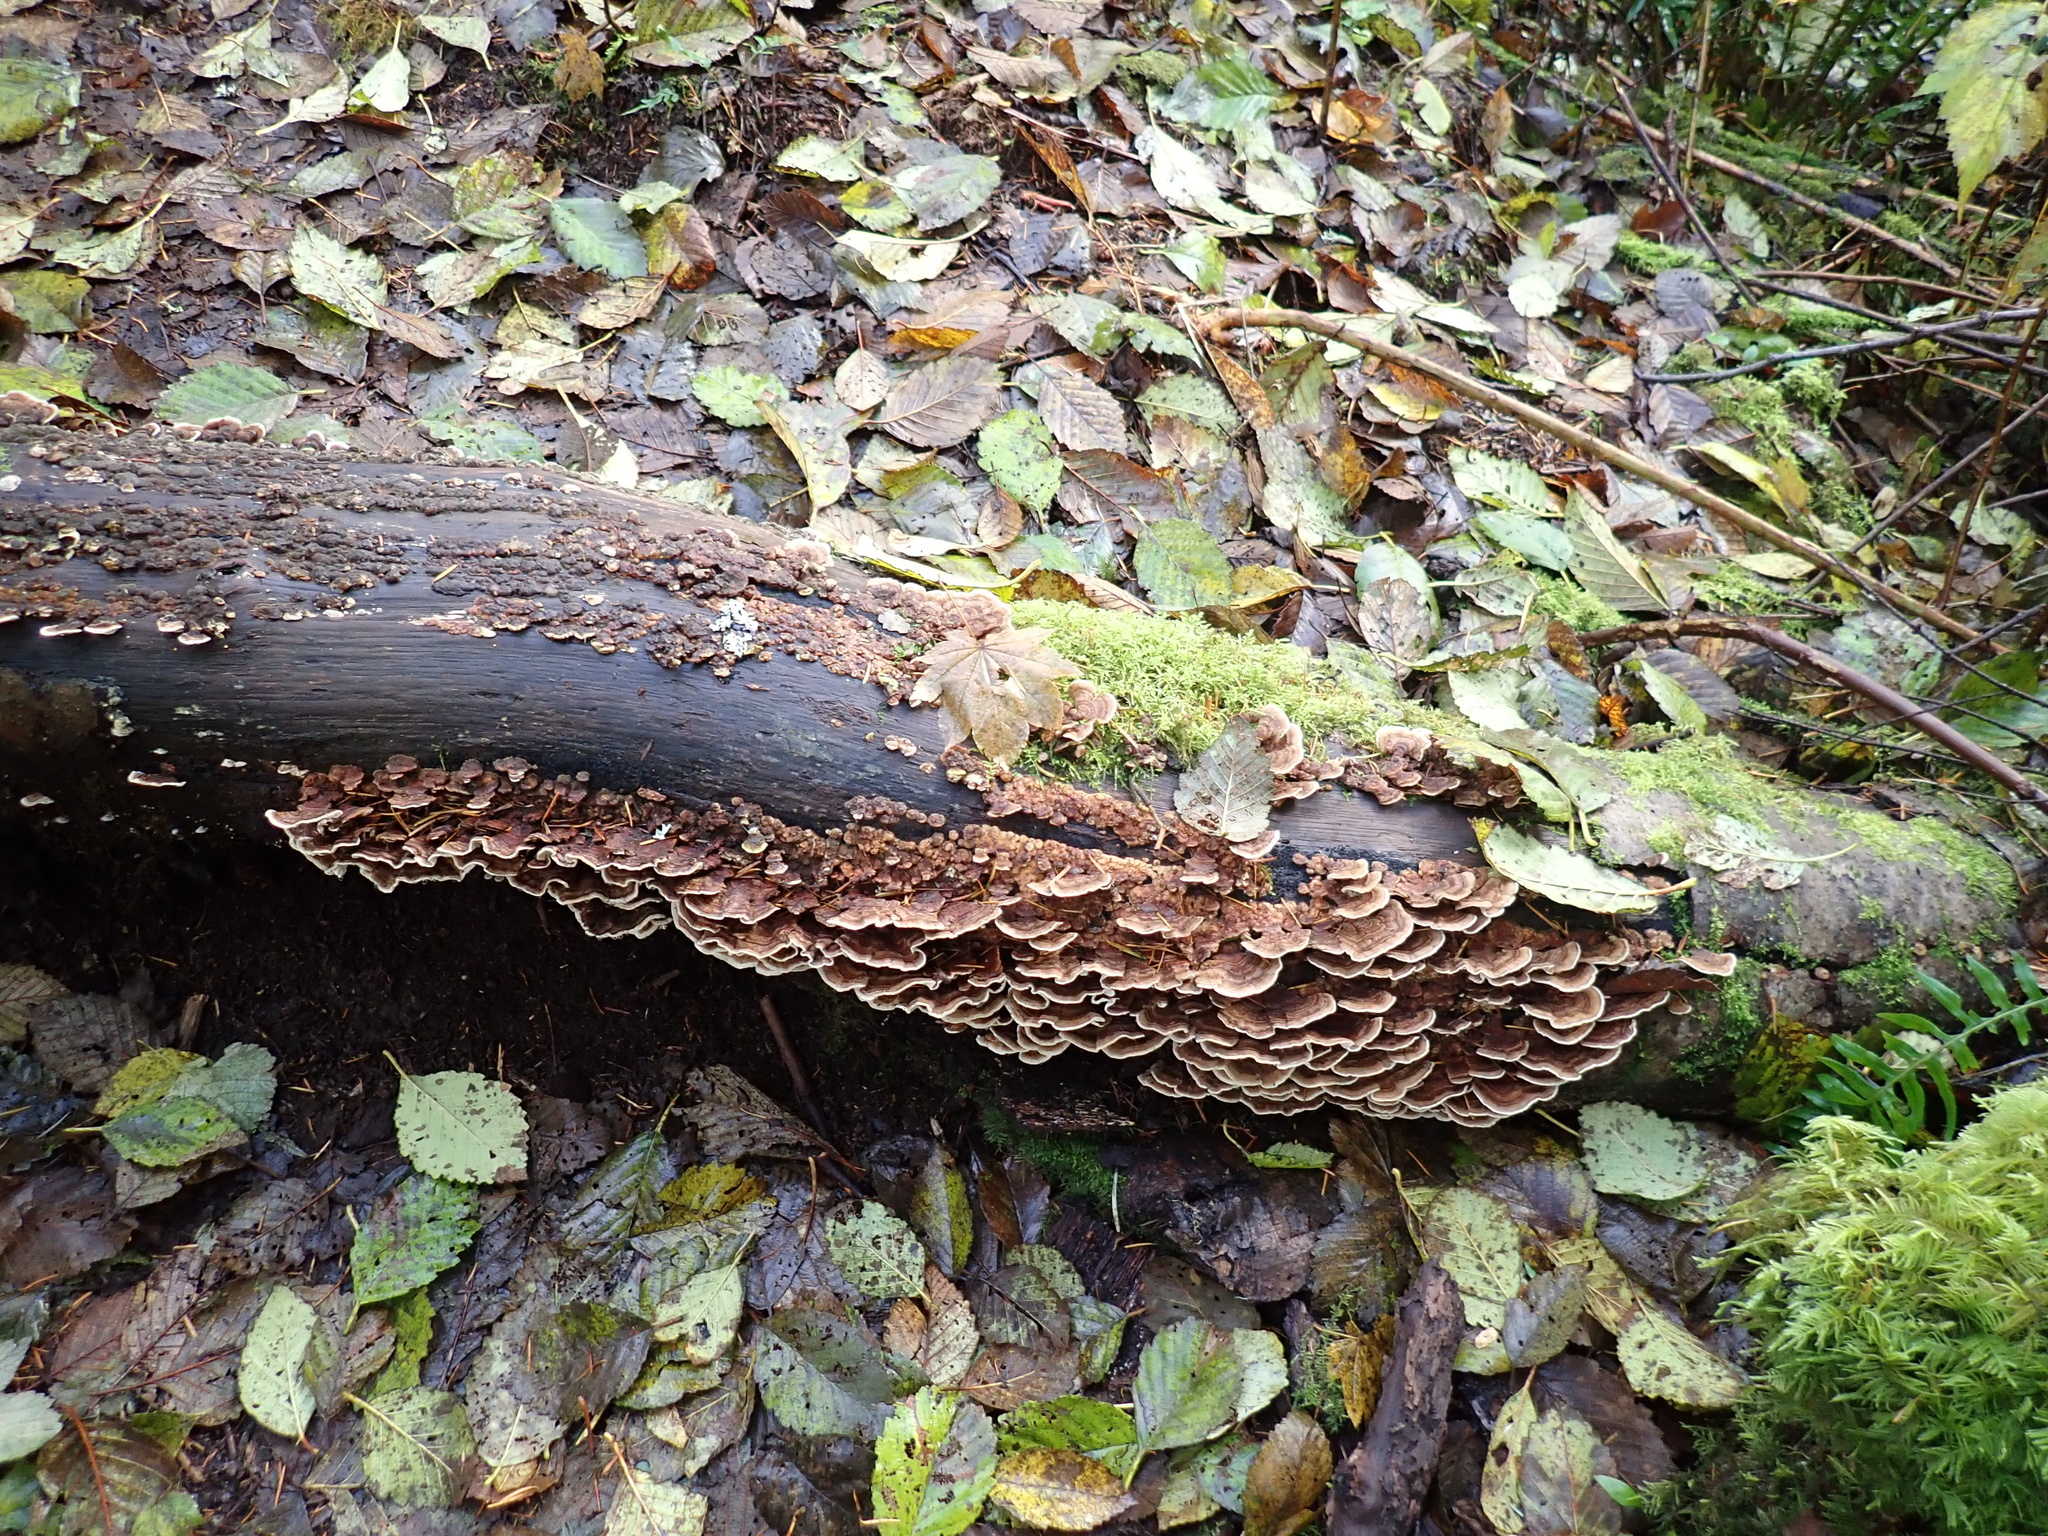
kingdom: Fungi
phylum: Basidiomycota
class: Agaricomycetes
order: Polyporales
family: Polyporaceae
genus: Trametes
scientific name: Trametes versicolor
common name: Turkeytail
